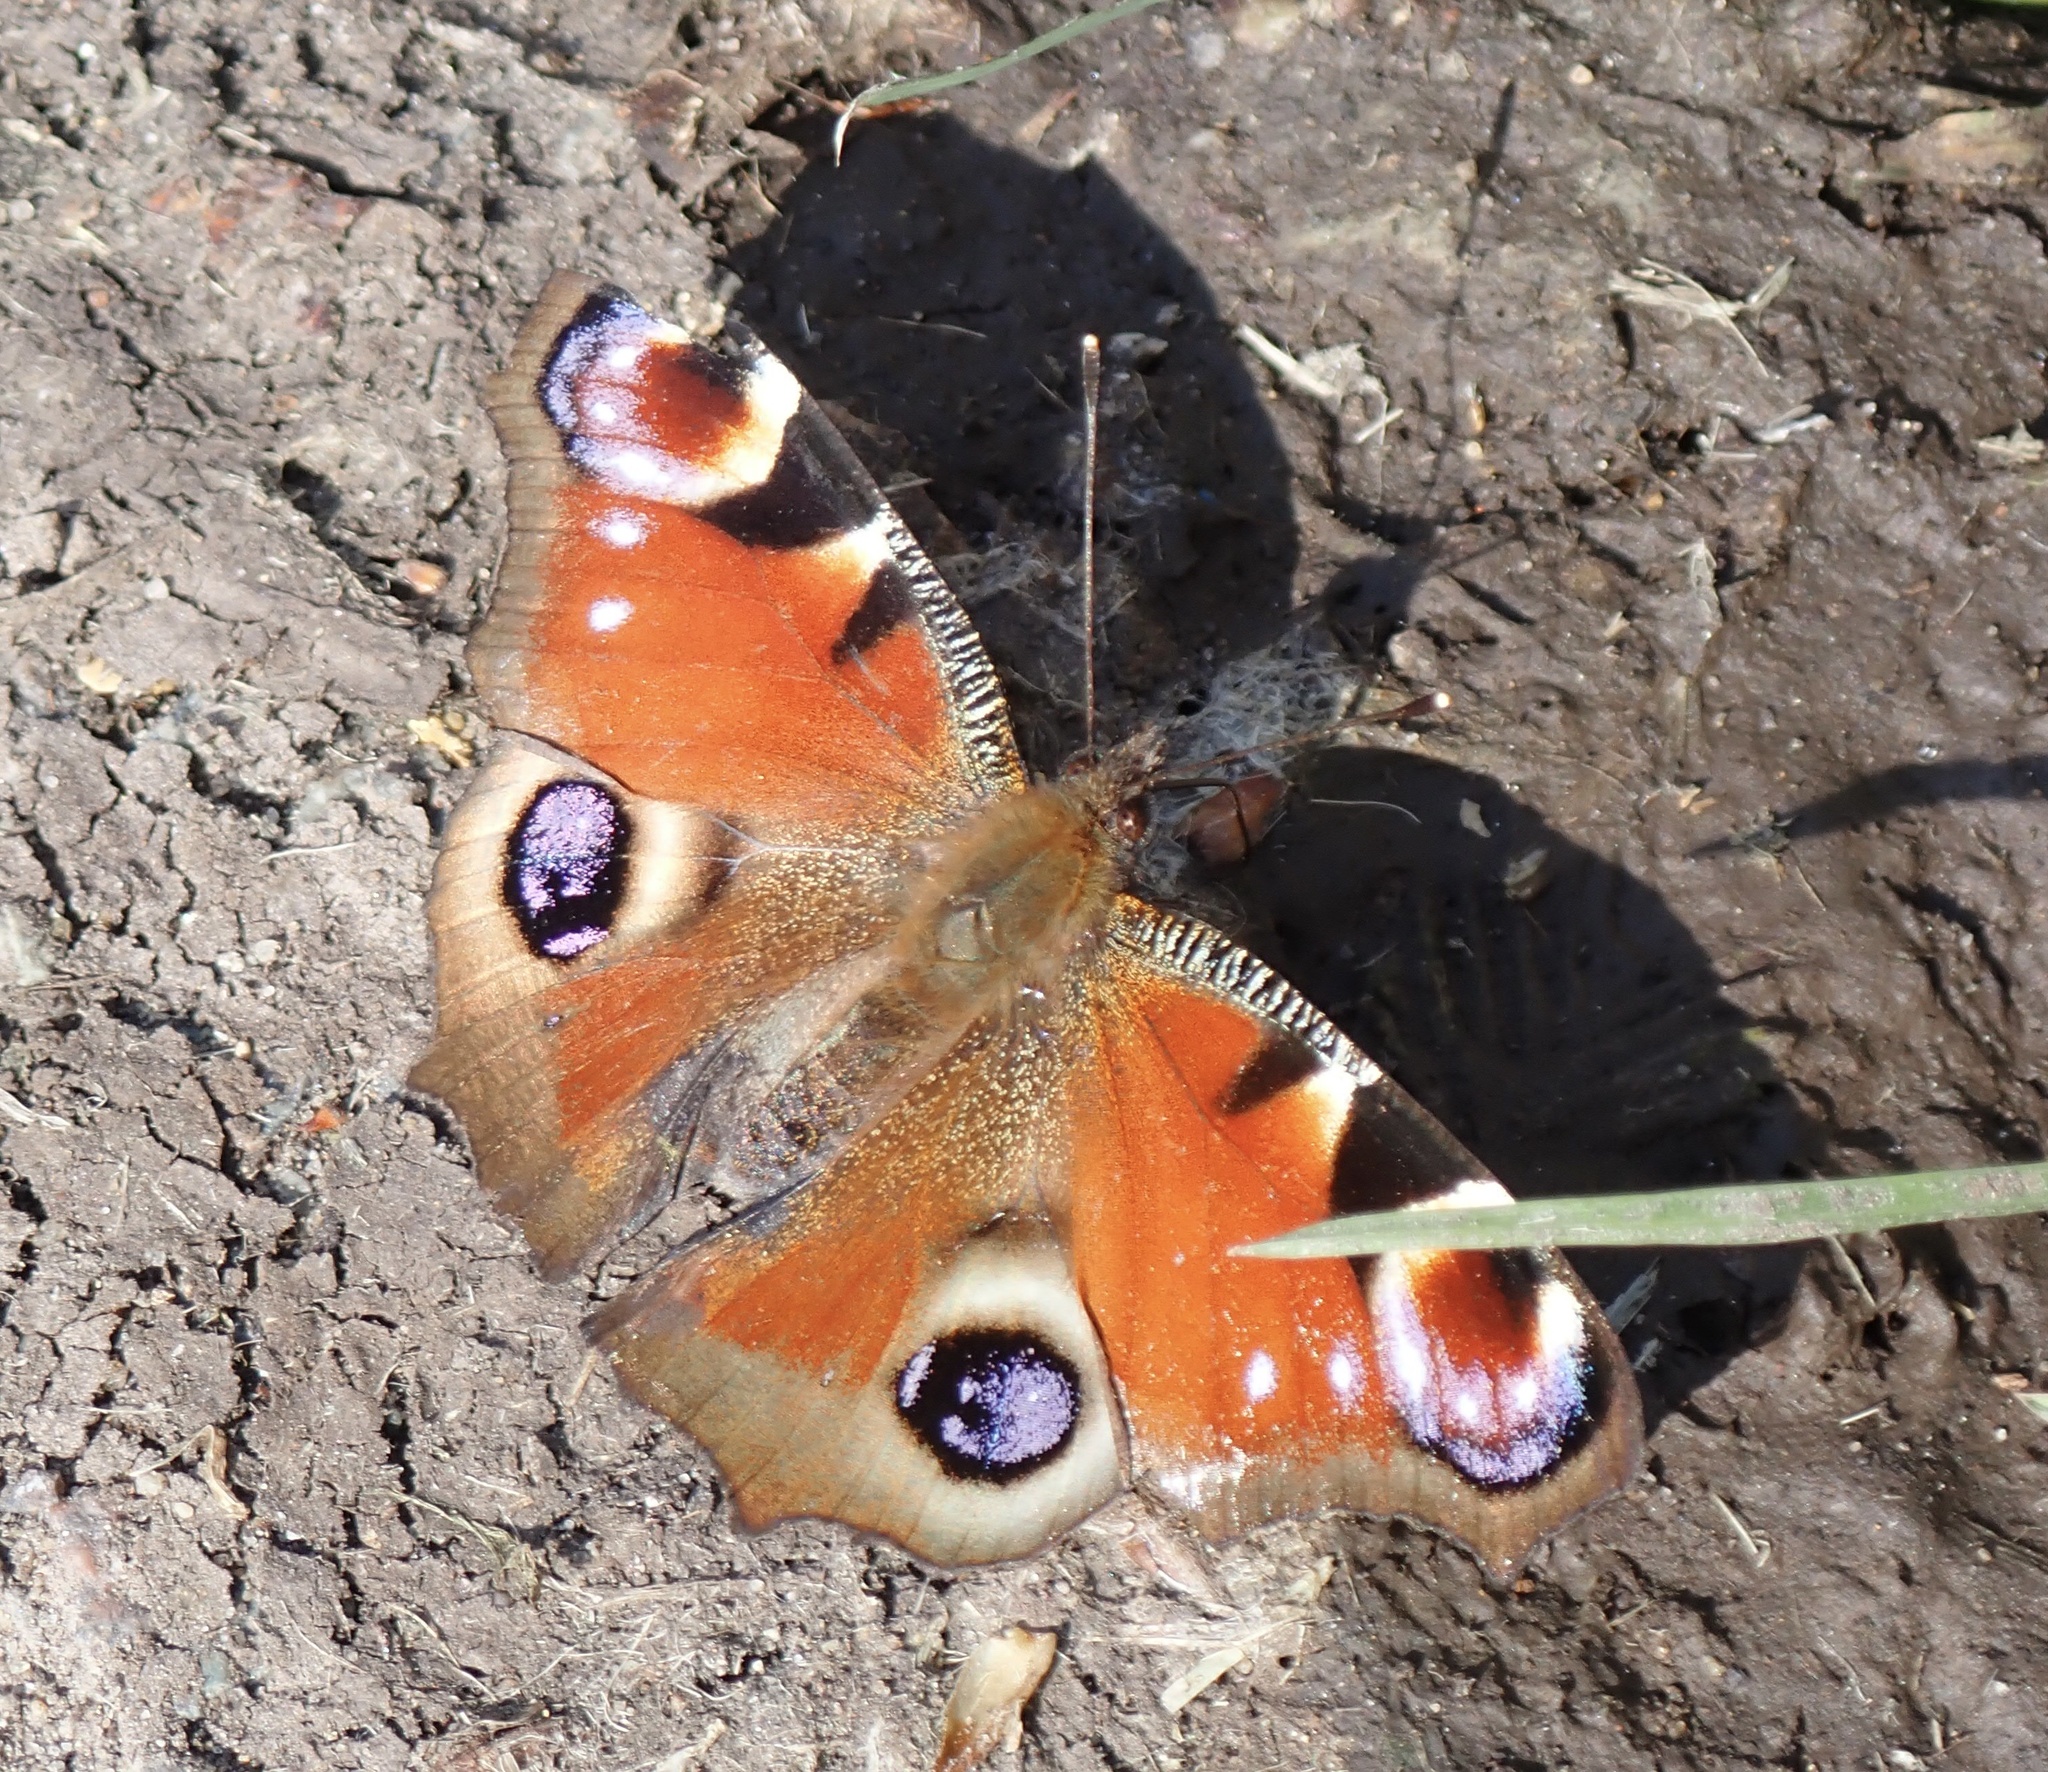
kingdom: Animalia
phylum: Arthropoda
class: Insecta
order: Lepidoptera
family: Nymphalidae
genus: Aglais
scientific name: Aglais io
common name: Peacock
